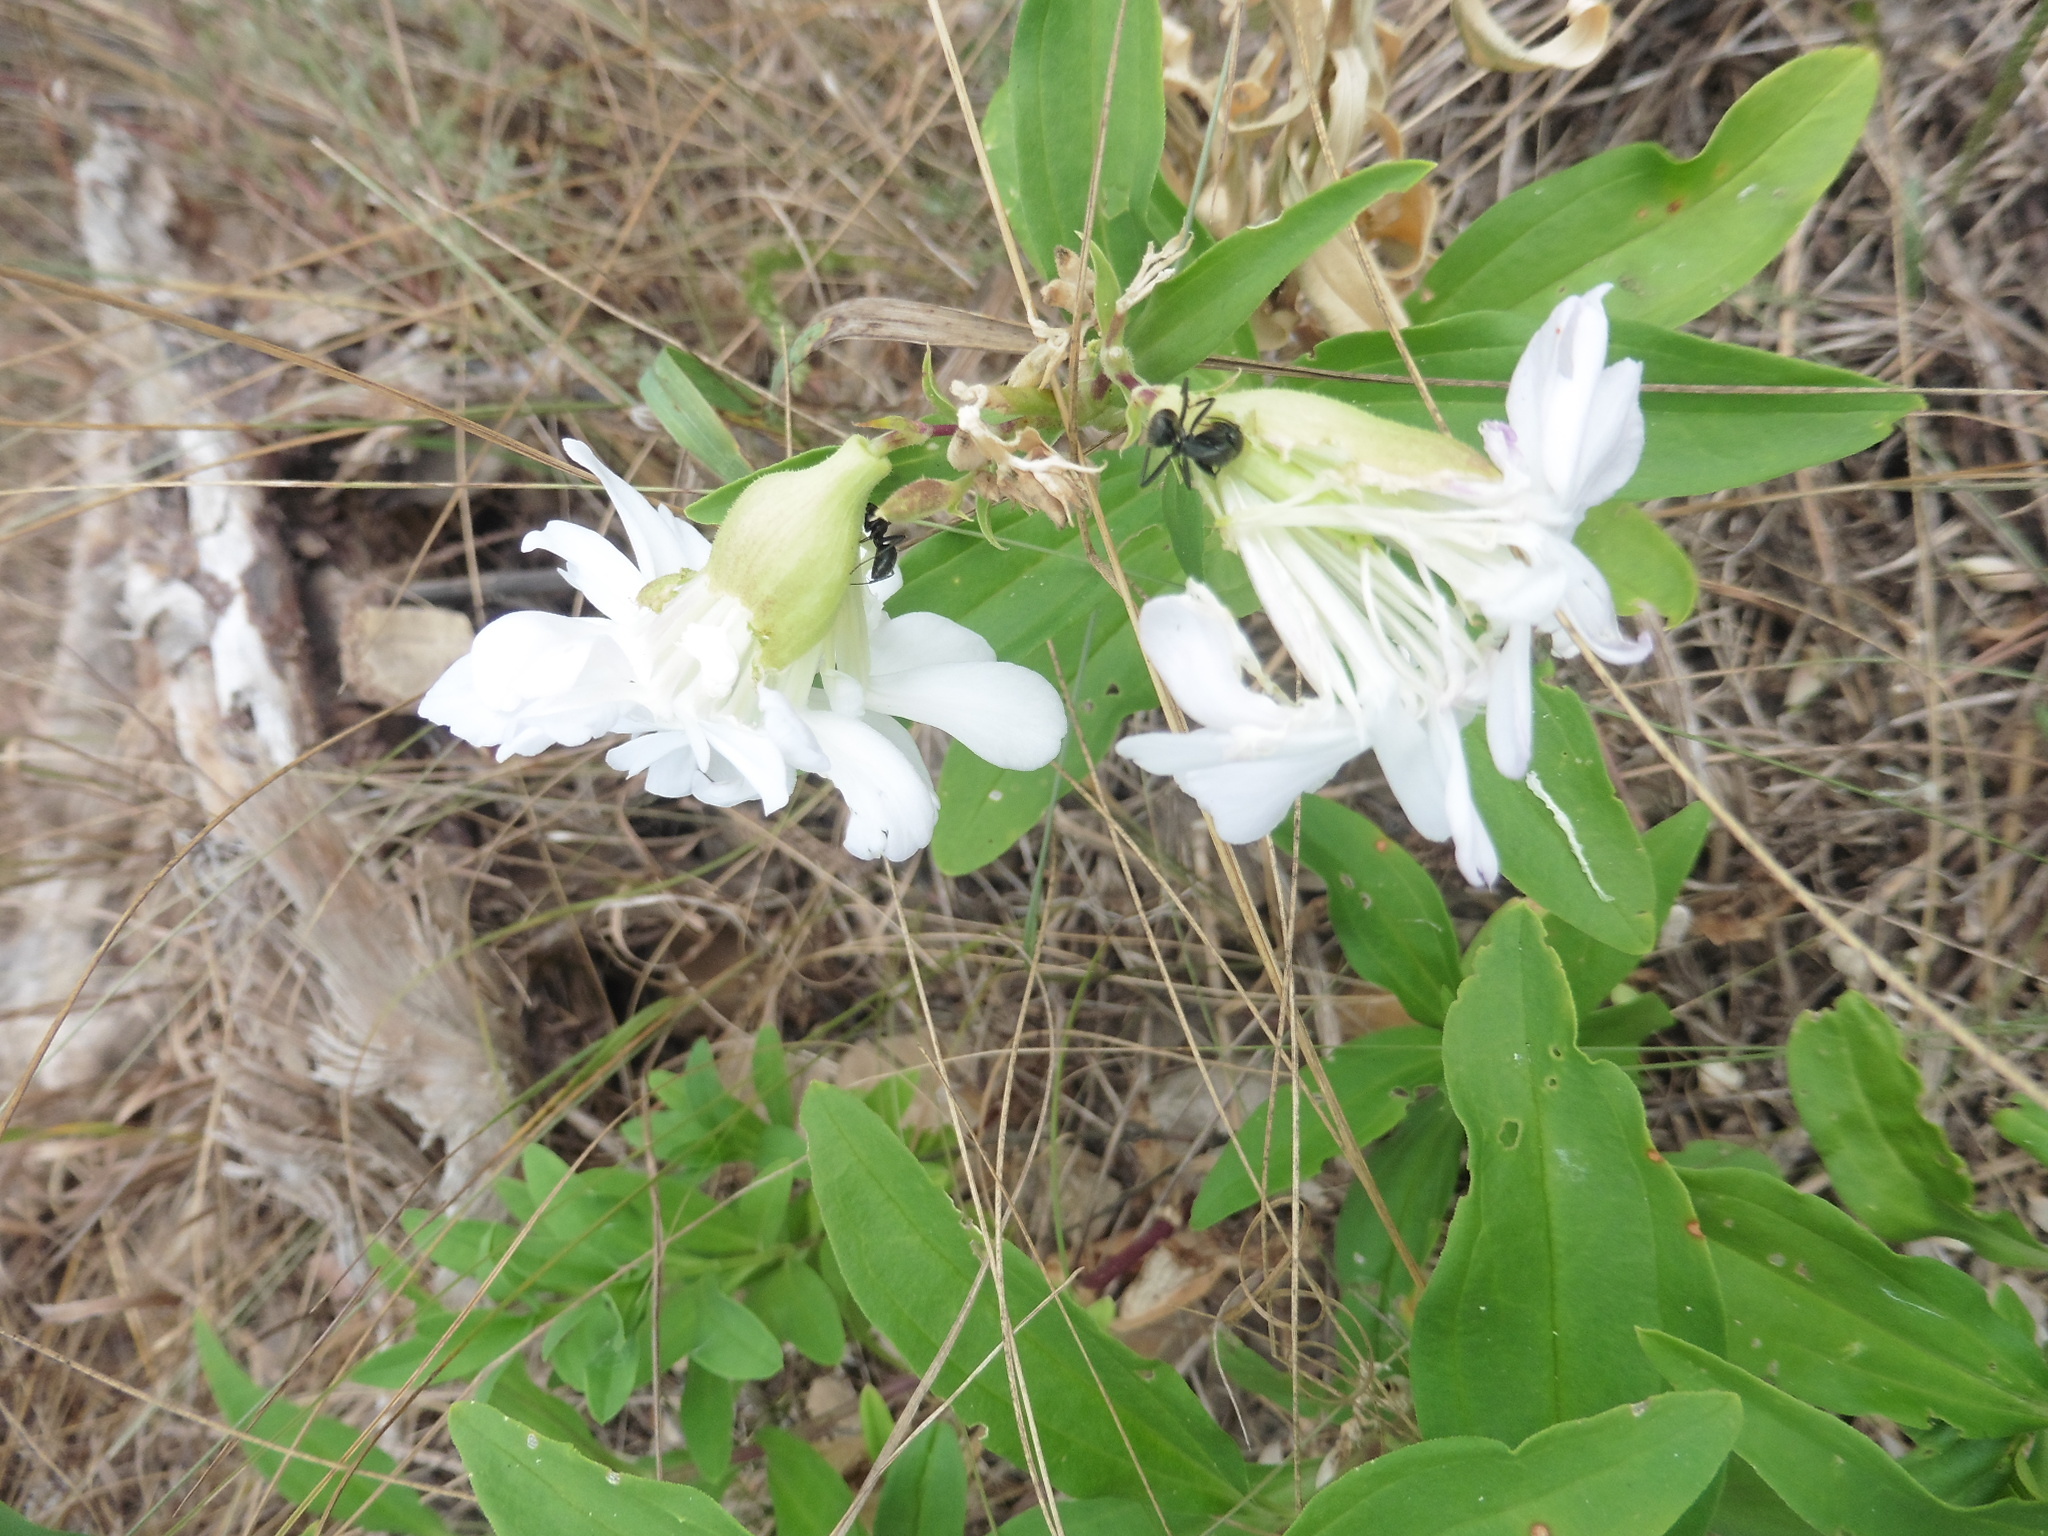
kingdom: Plantae
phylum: Tracheophyta
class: Magnoliopsida
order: Caryophyllales
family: Caryophyllaceae
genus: Saponaria
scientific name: Saponaria officinalis
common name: Soapwort
